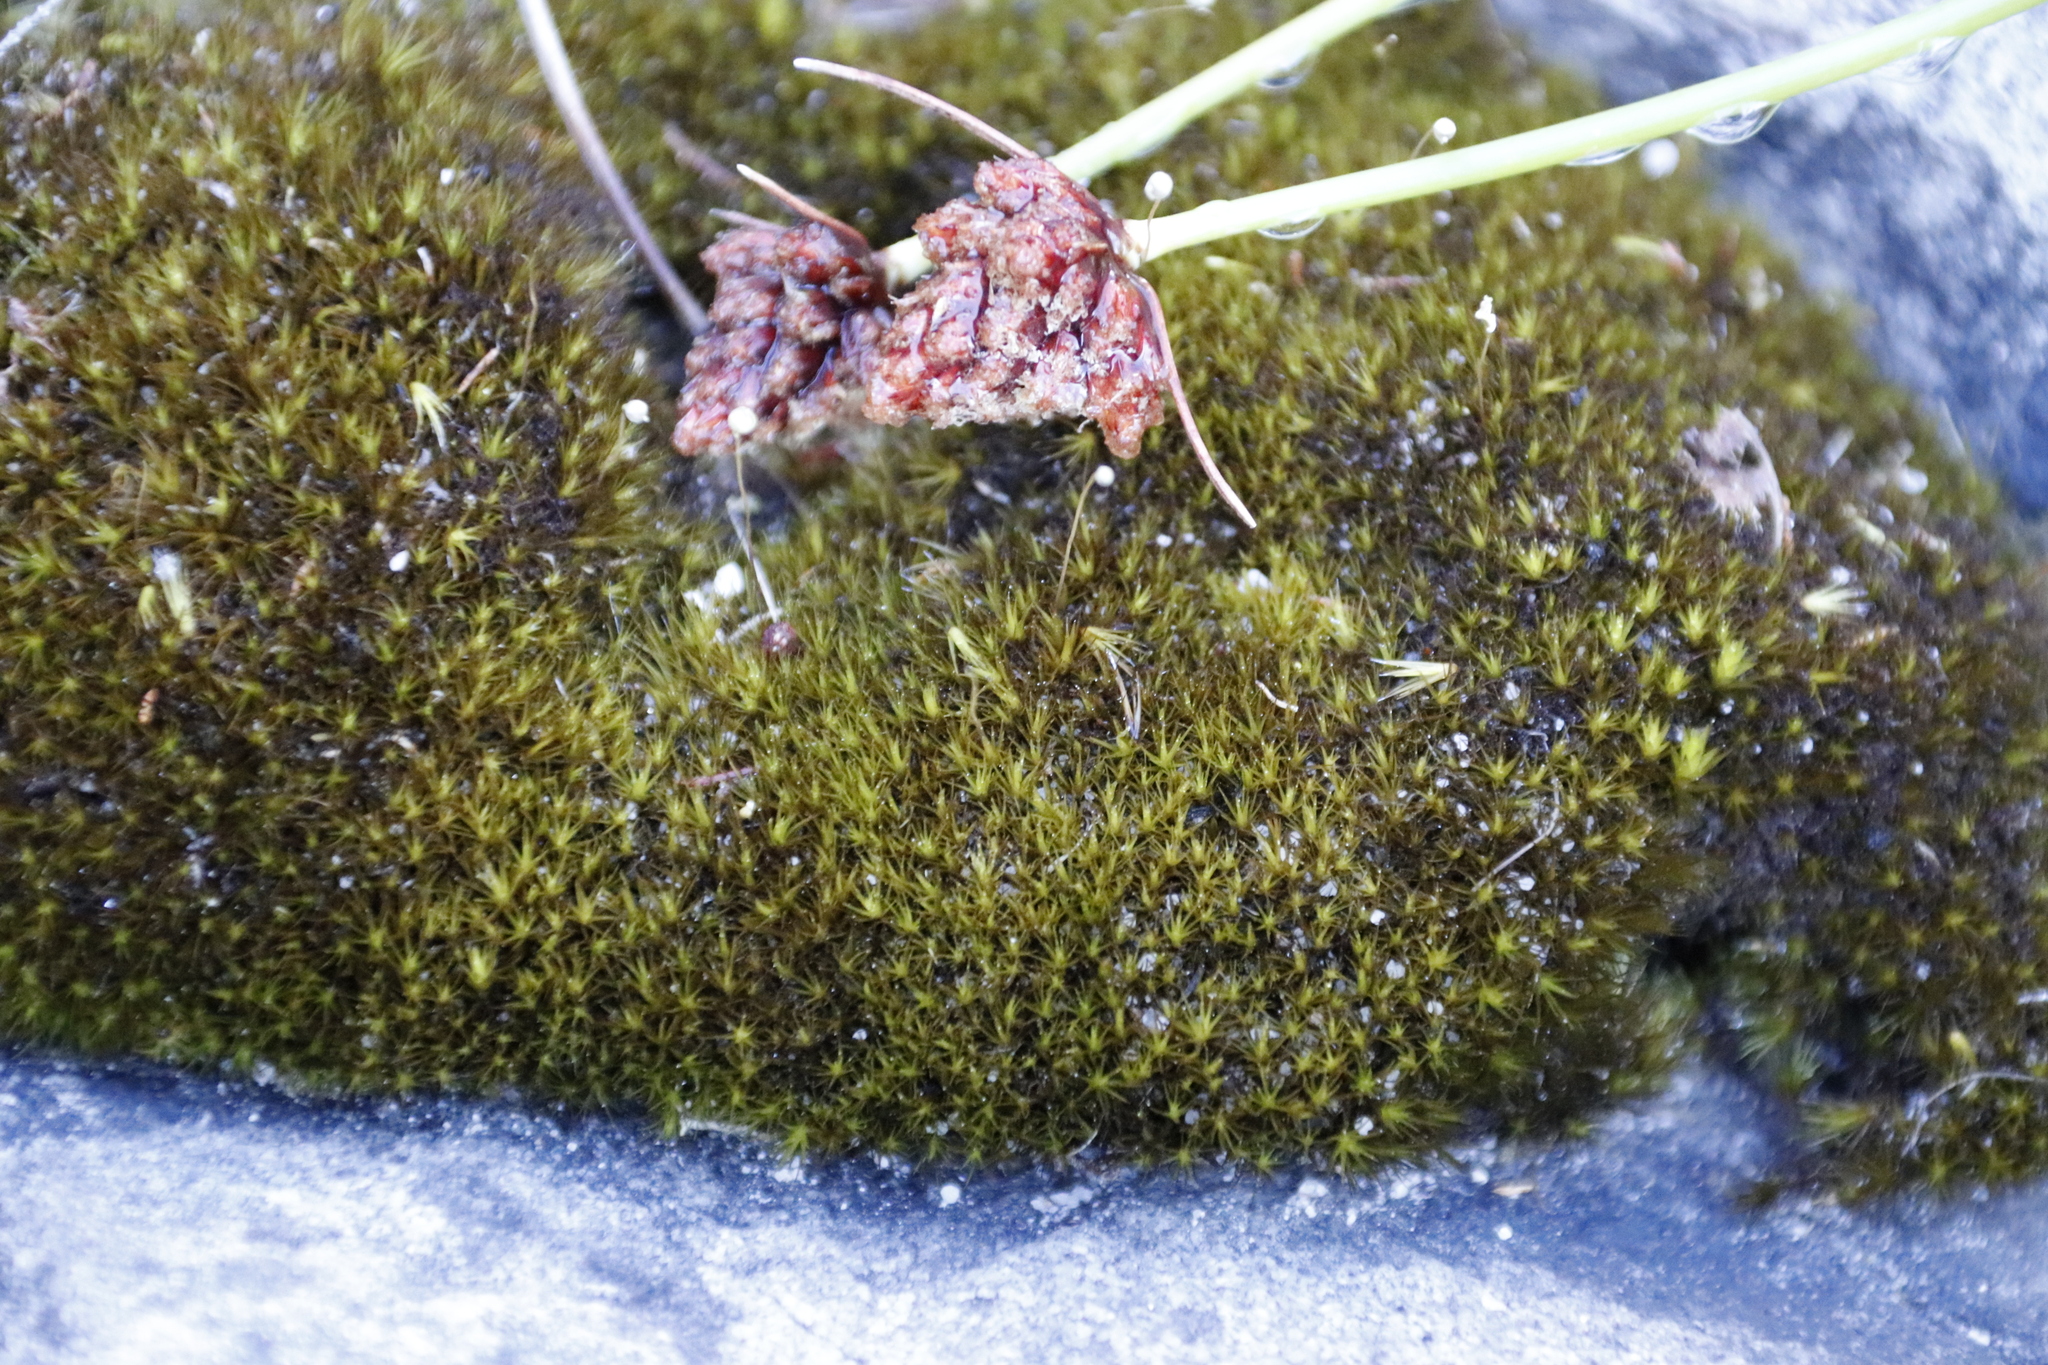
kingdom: Plantae
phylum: Bryophyta
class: Bryopsida
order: Dicranales
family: Leucobryaceae
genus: Campylopus
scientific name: Campylopus bicolor
